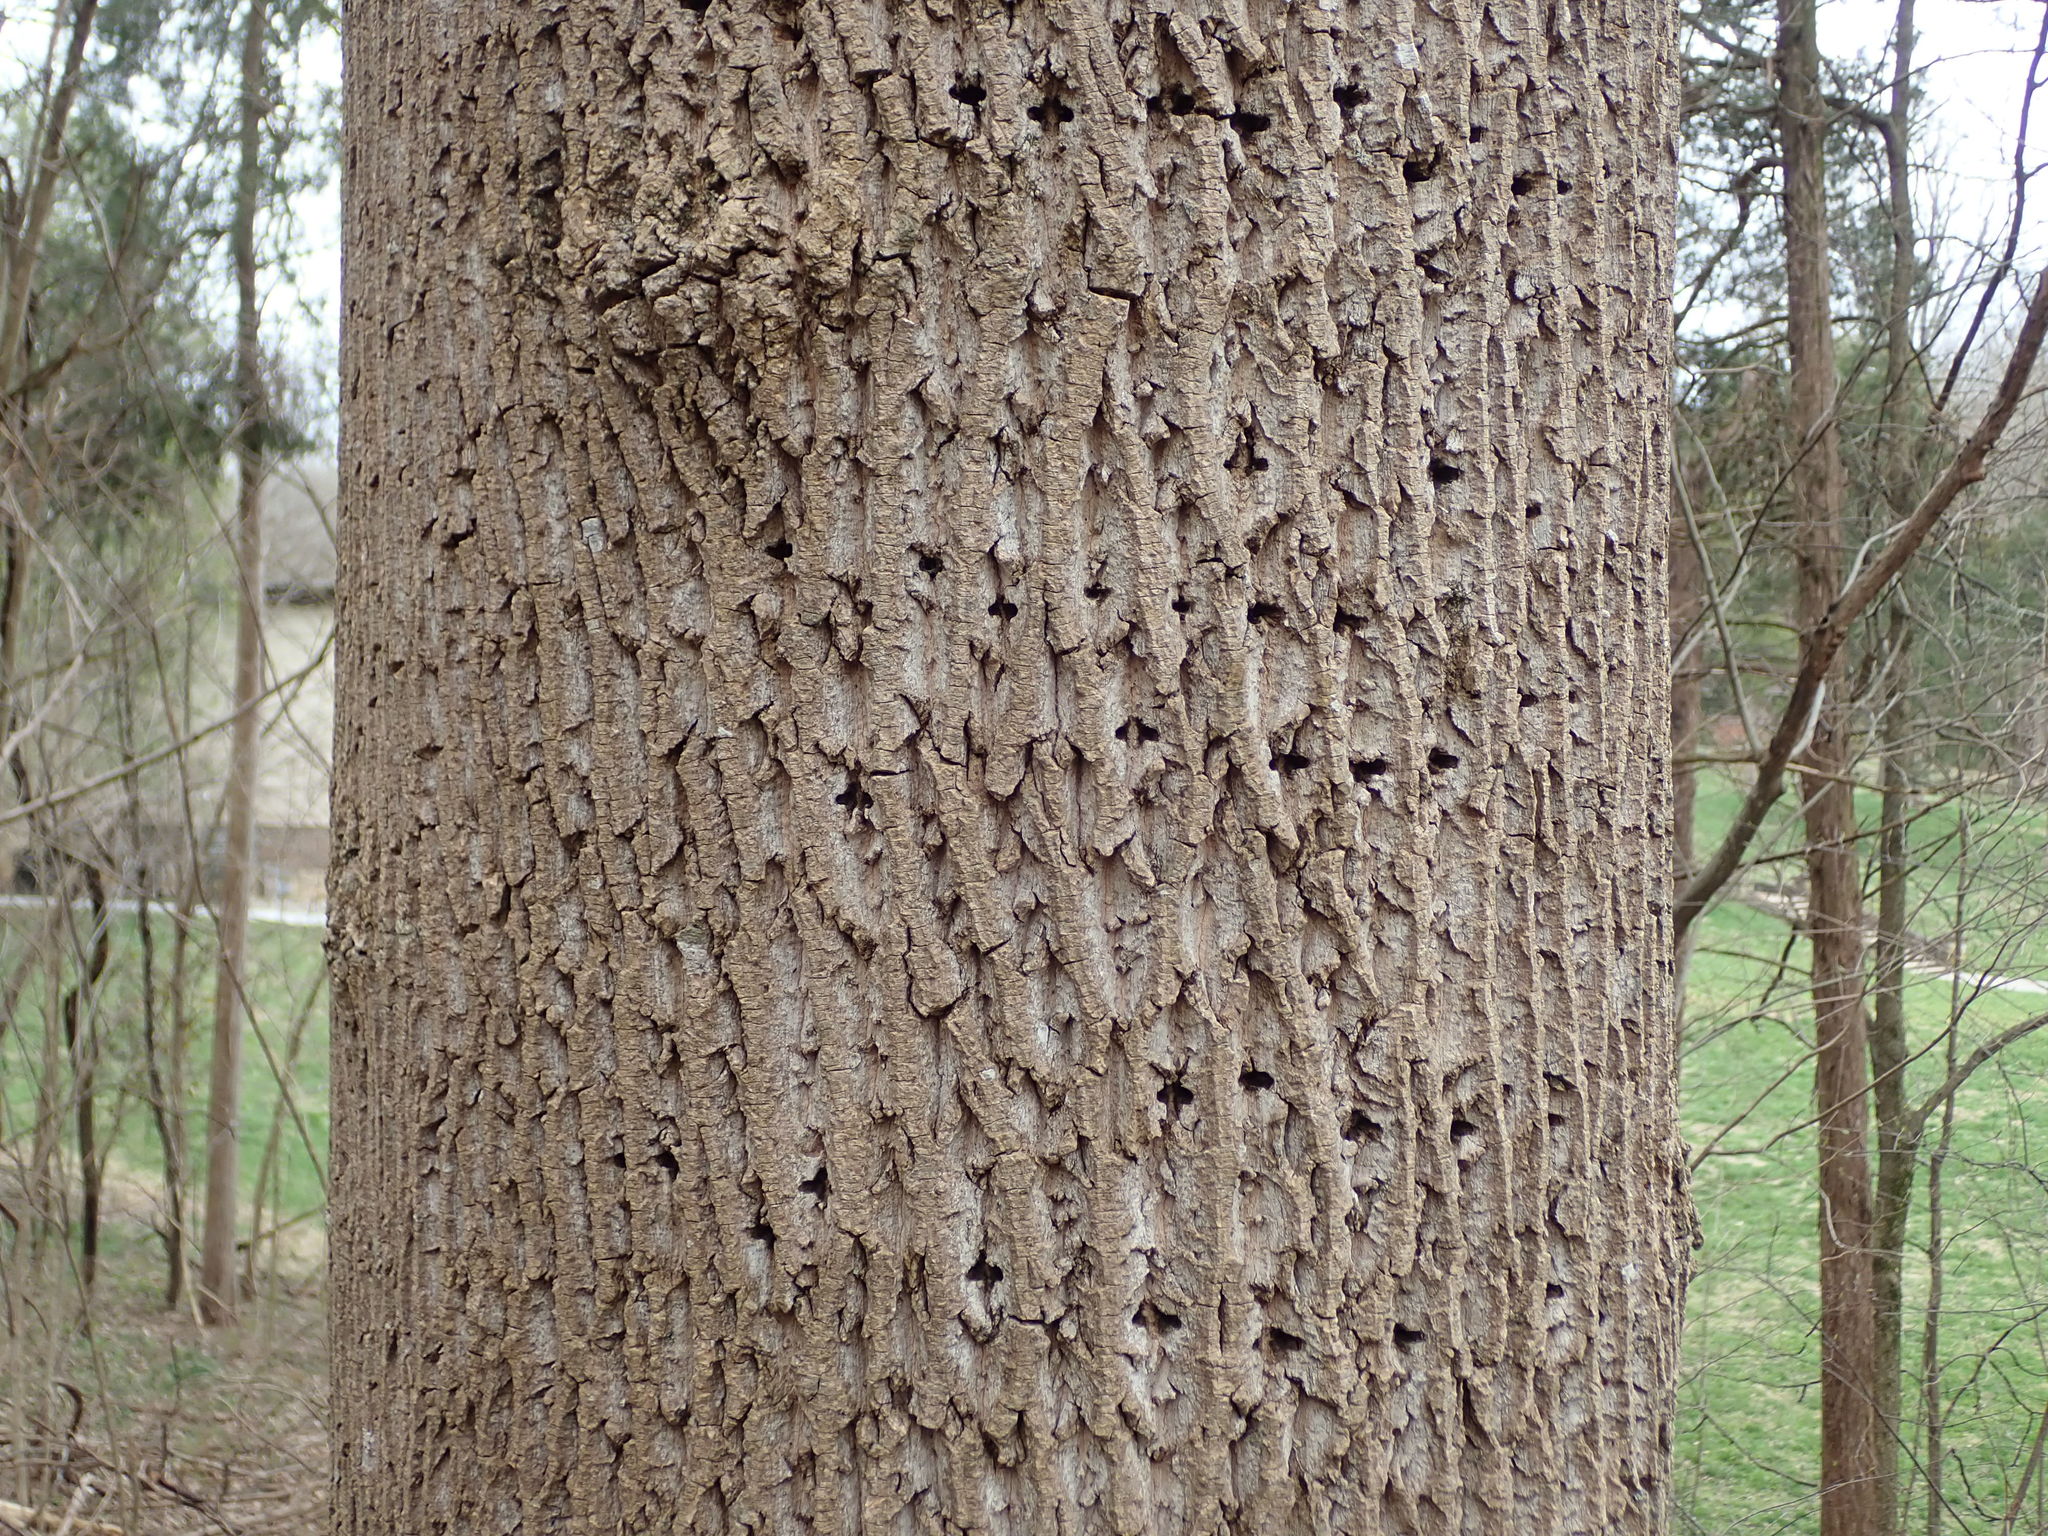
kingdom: Animalia
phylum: Chordata
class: Aves
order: Piciformes
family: Picidae
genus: Sphyrapicus
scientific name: Sphyrapicus varius
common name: Yellow-bellied sapsucker
